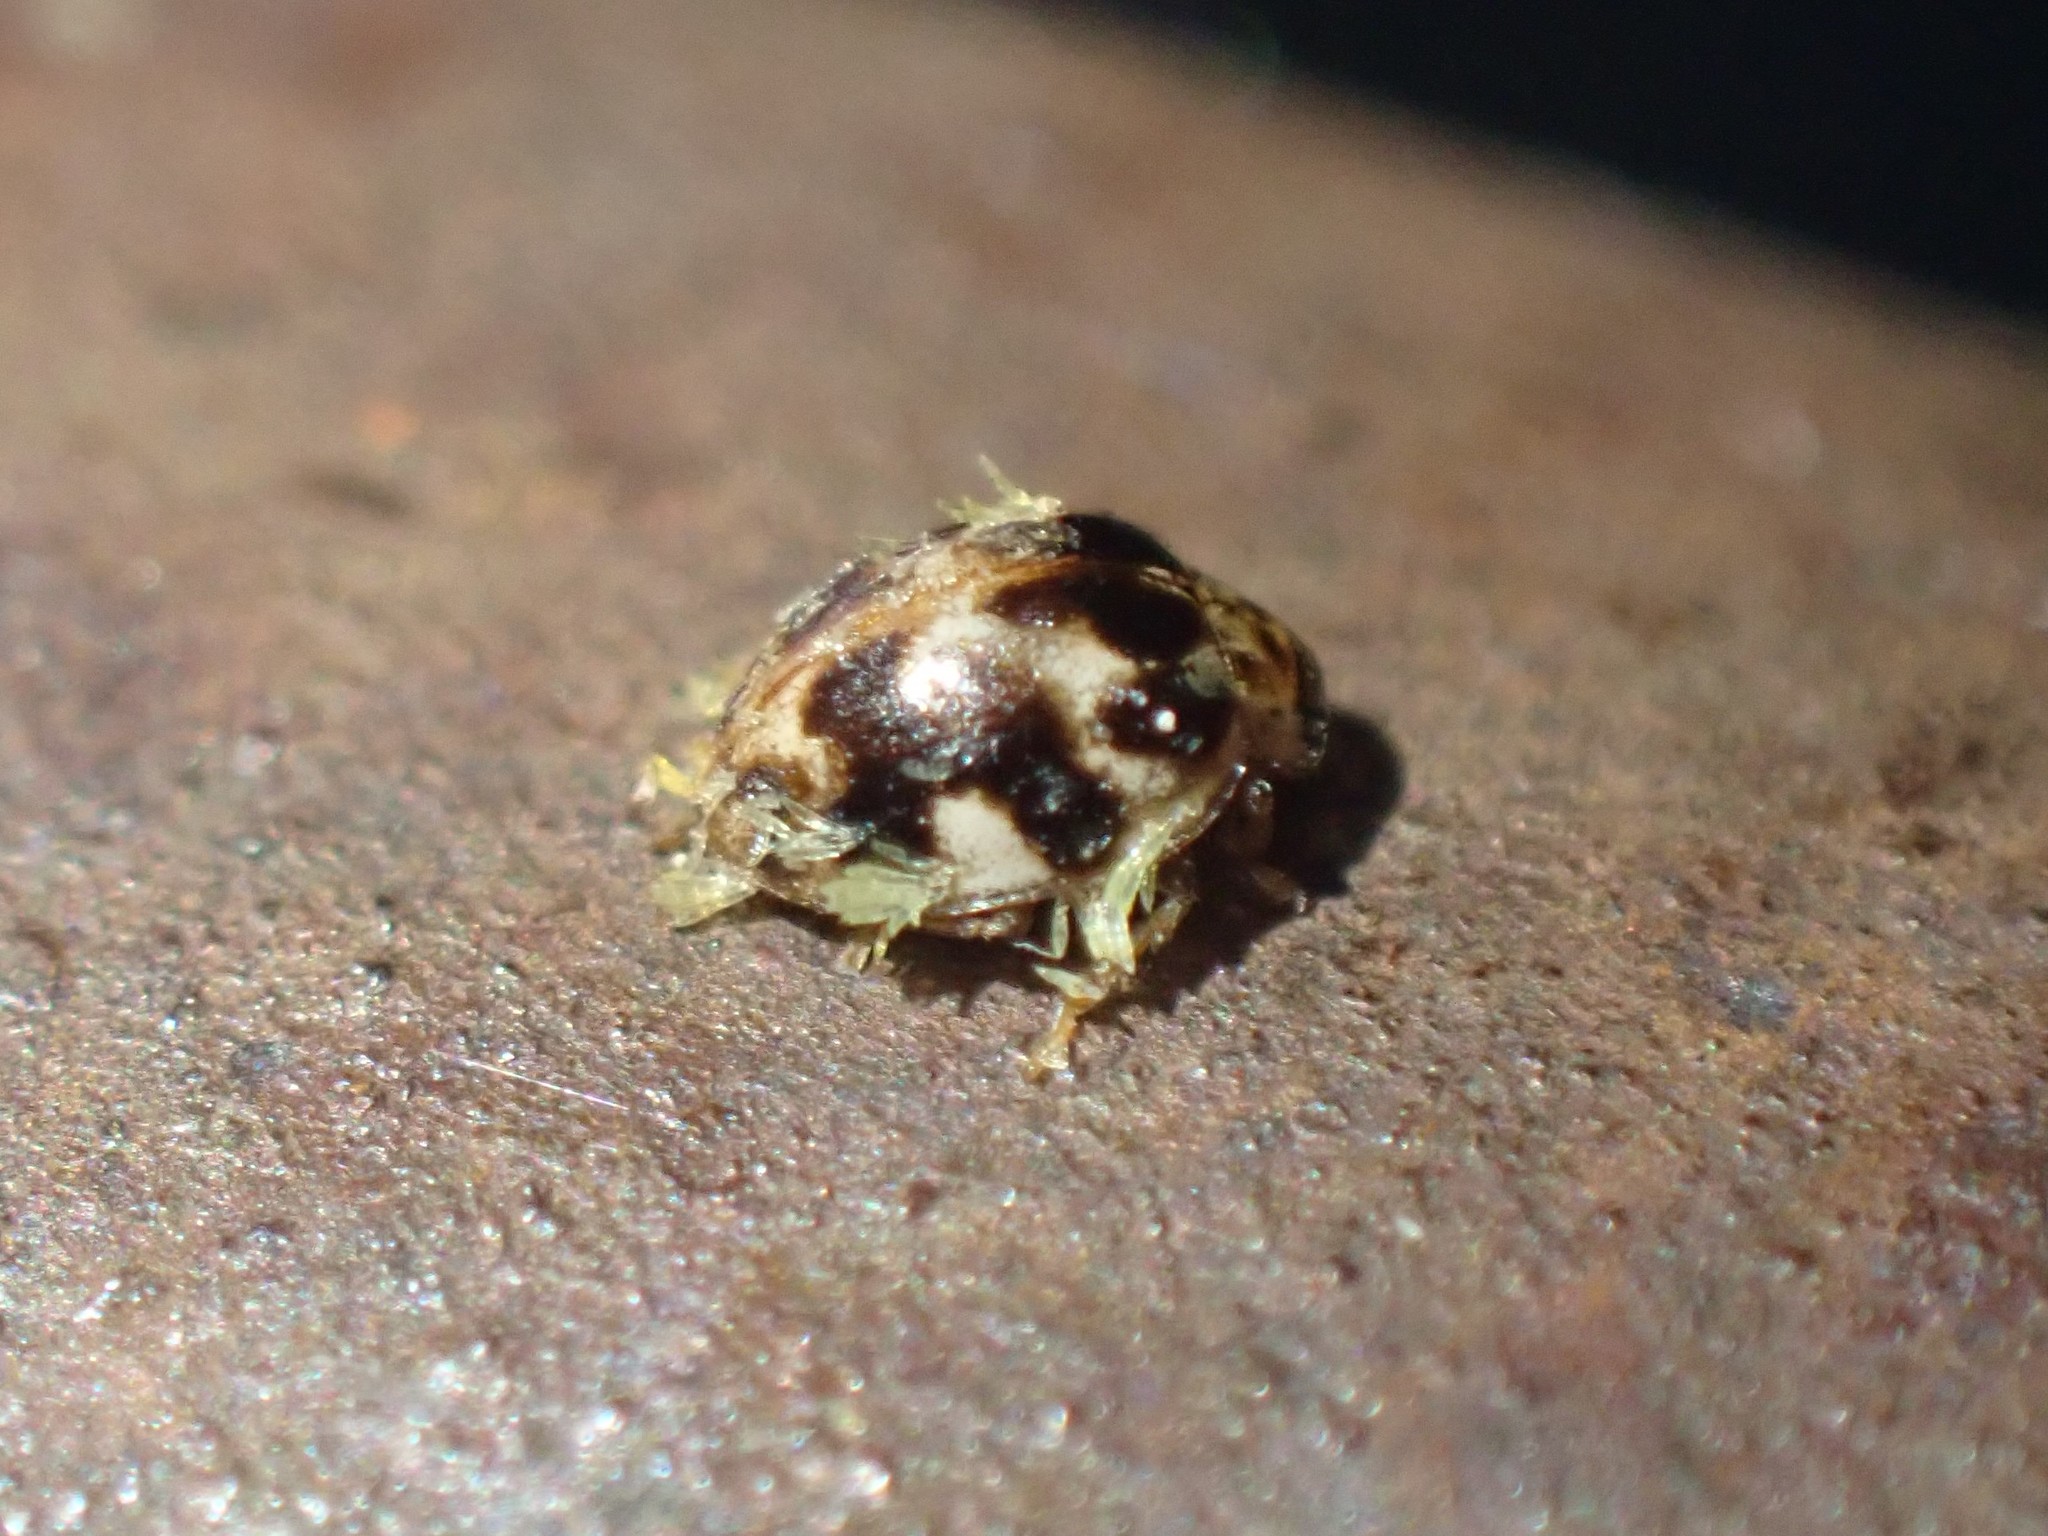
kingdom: Animalia
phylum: Arthropoda
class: Insecta
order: Coleoptera
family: Coccinellidae
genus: Psyllobora
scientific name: Psyllobora vigintimaculata
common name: Ladybird beetle
